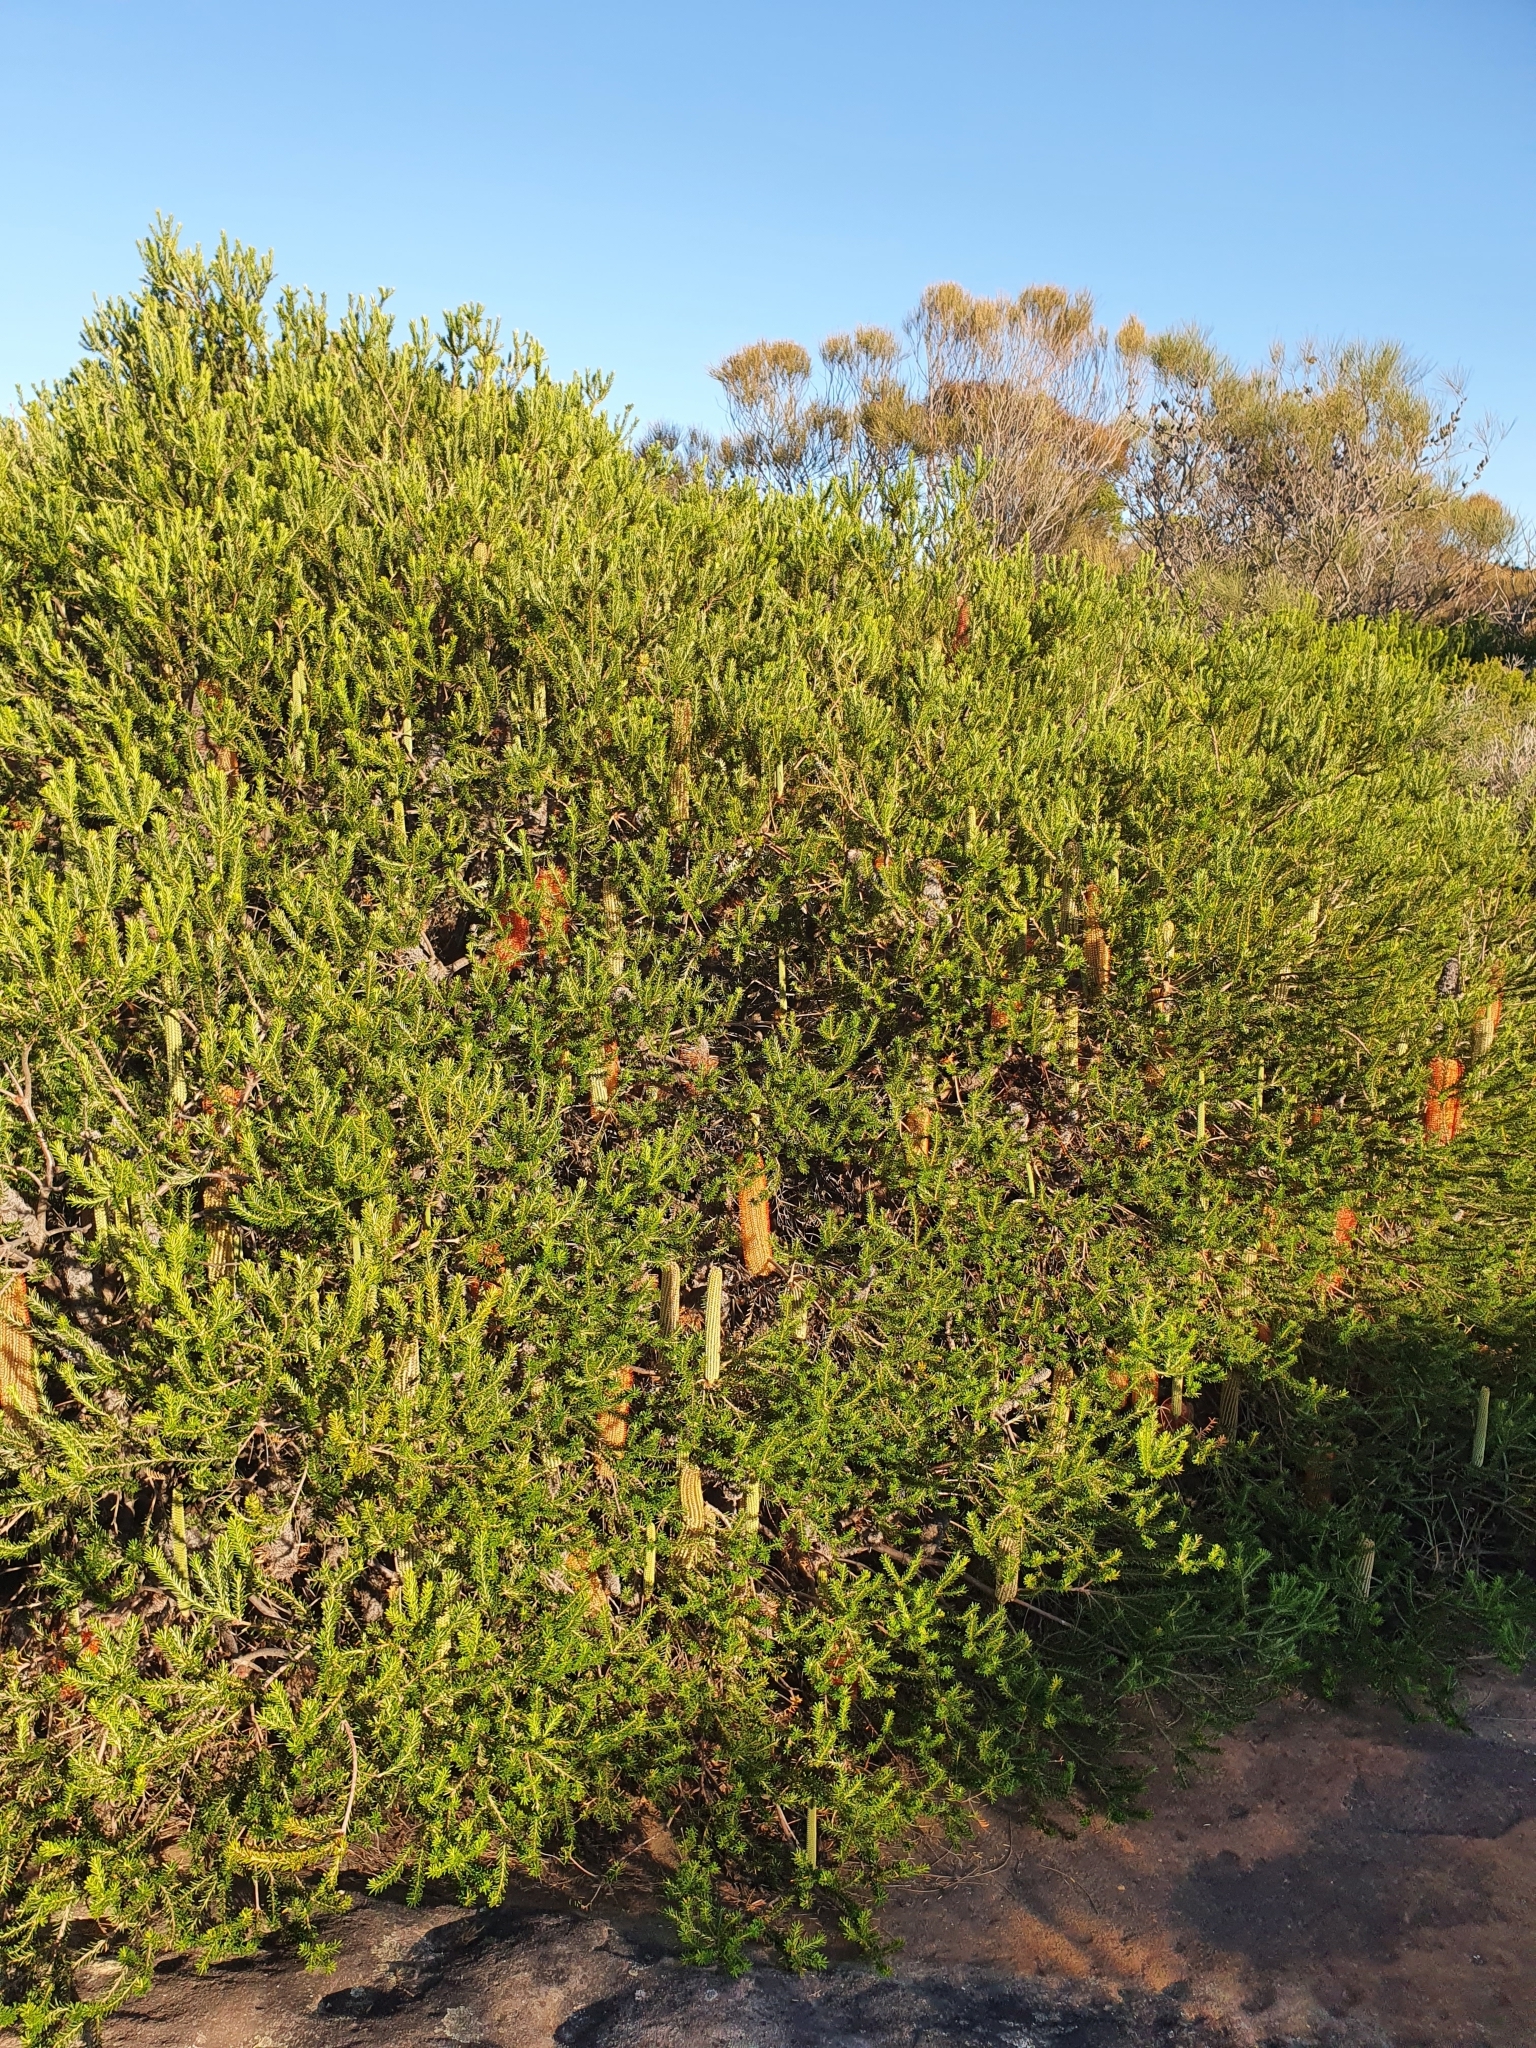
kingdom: Plantae
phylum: Tracheophyta
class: Magnoliopsida
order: Proteales
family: Proteaceae
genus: Banksia
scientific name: Banksia ericifolia
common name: Heath-leaf banksia
